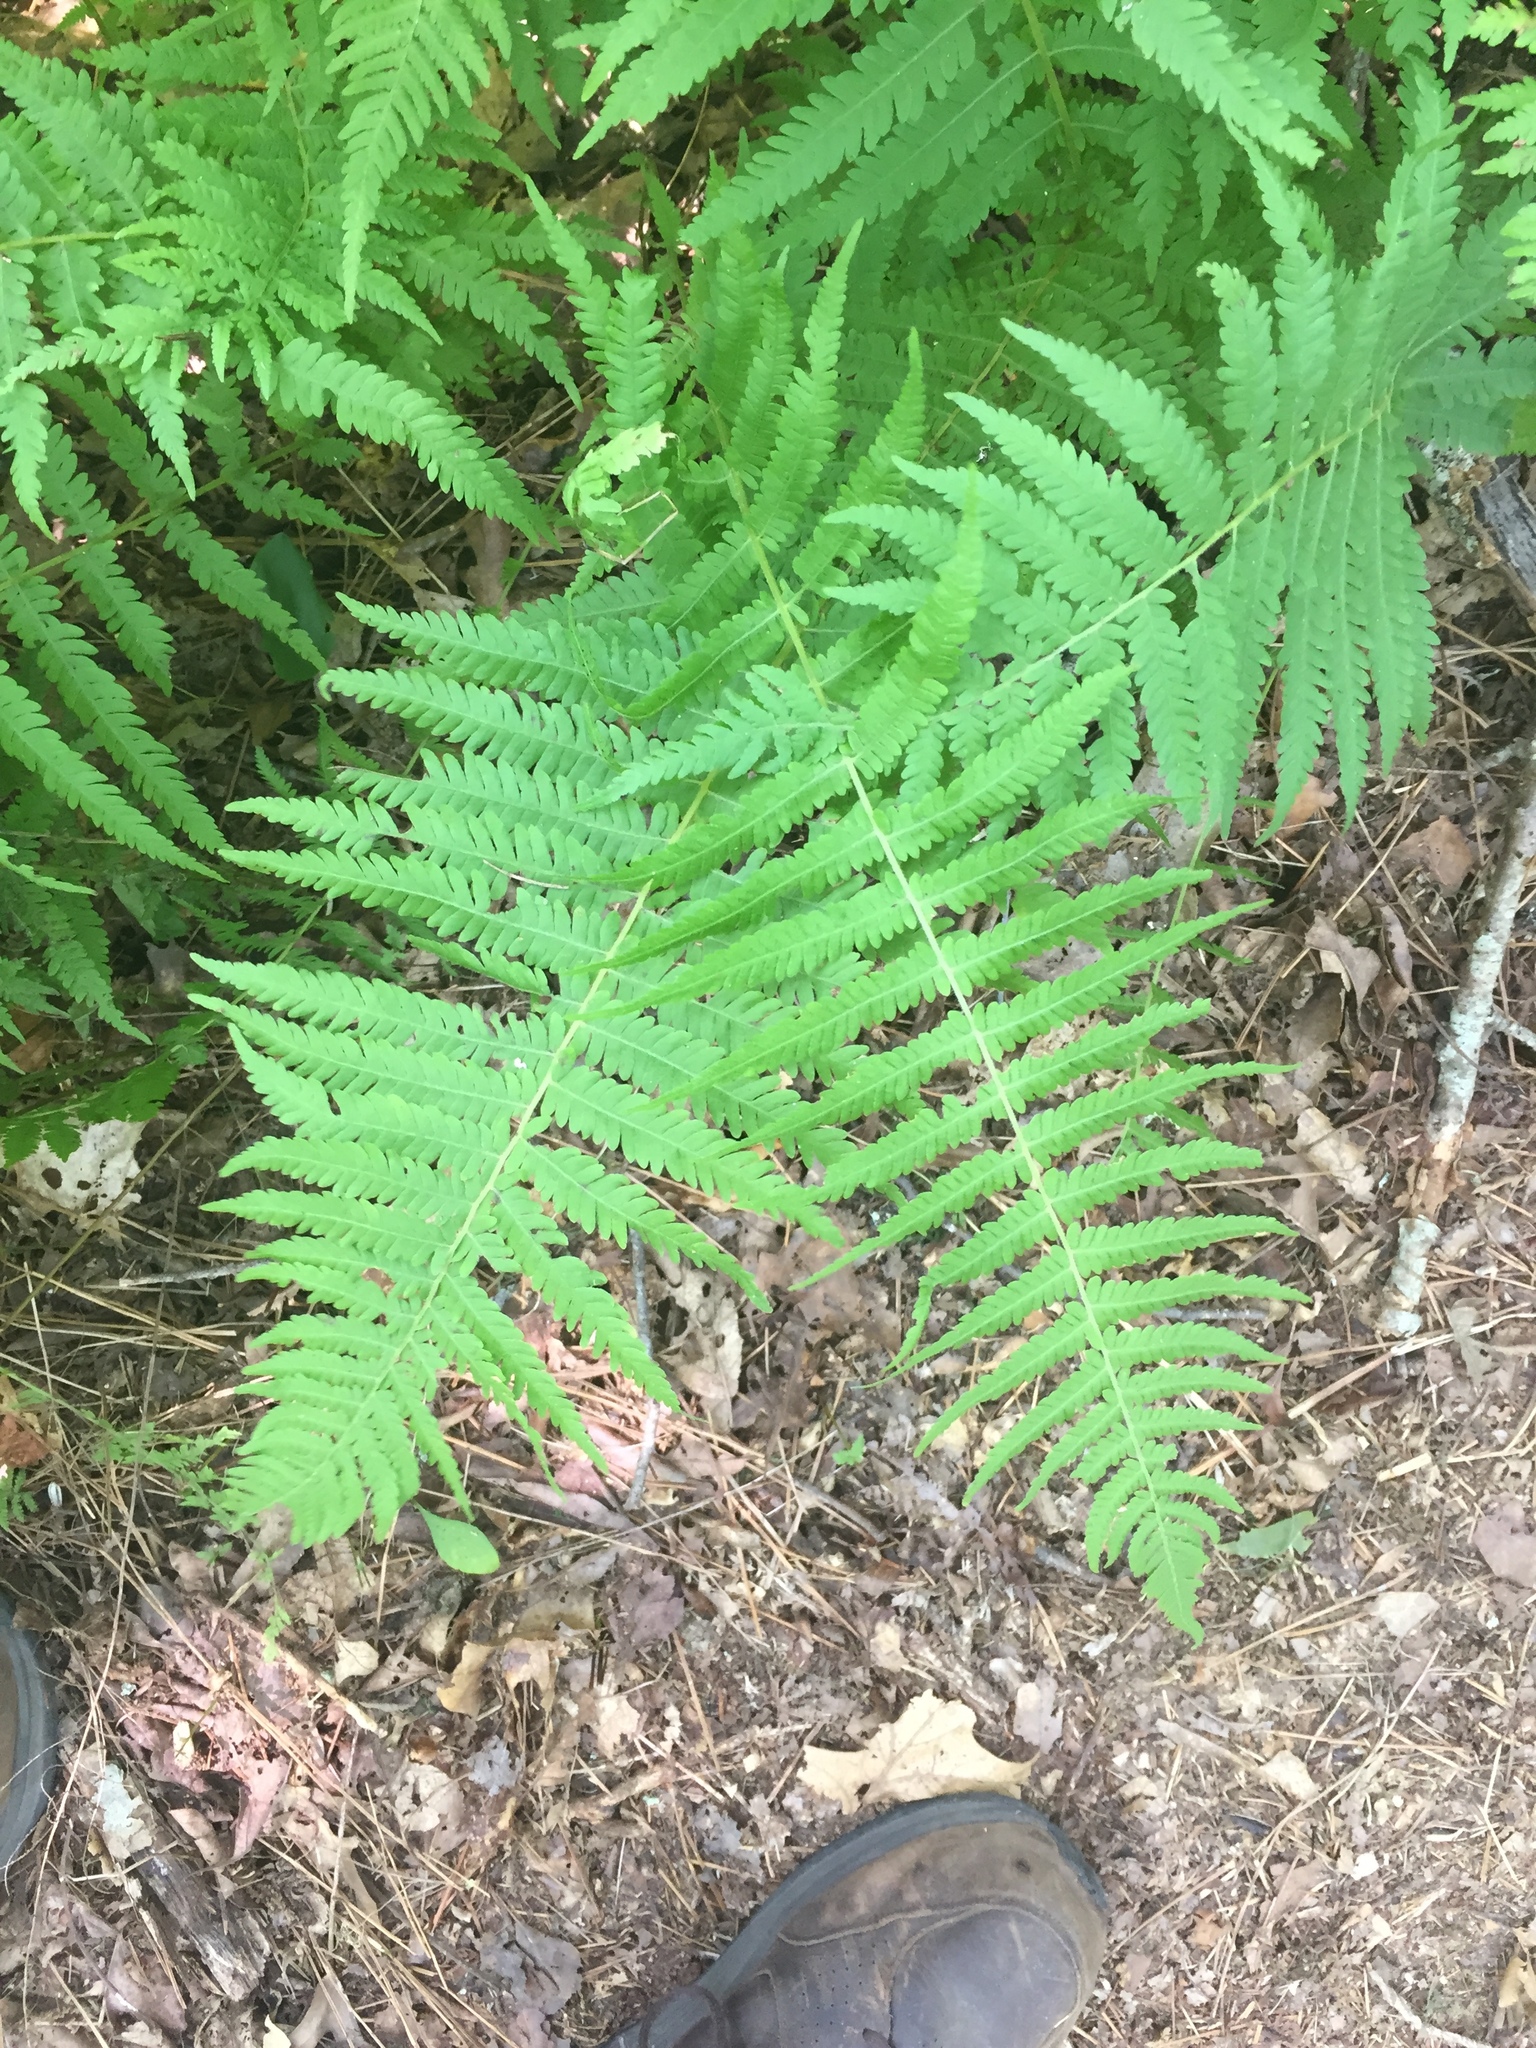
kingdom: Plantae
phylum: Tracheophyta
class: Polypodiopsida
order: Polypodiales
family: Thelypteridaceae
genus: Amauropelta
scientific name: Amauropelta noveboracensis
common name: New york fern
